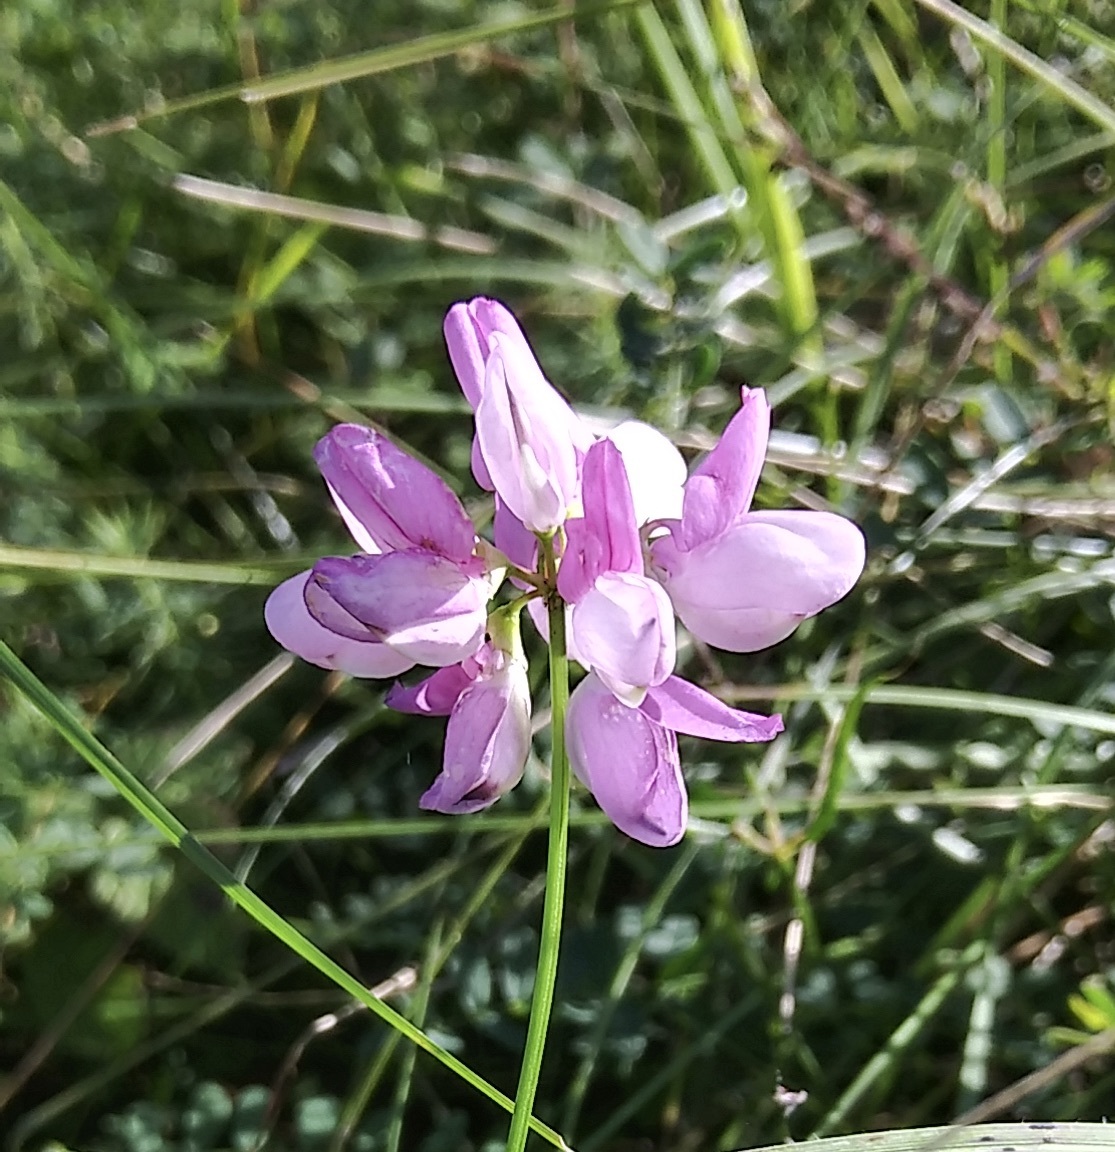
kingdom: Plantae
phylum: Tracheophyta
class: Magnoliopsida
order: Fabales
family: Fabaceae
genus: Coronilla
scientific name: Coronilla varia
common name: Crownvetch
